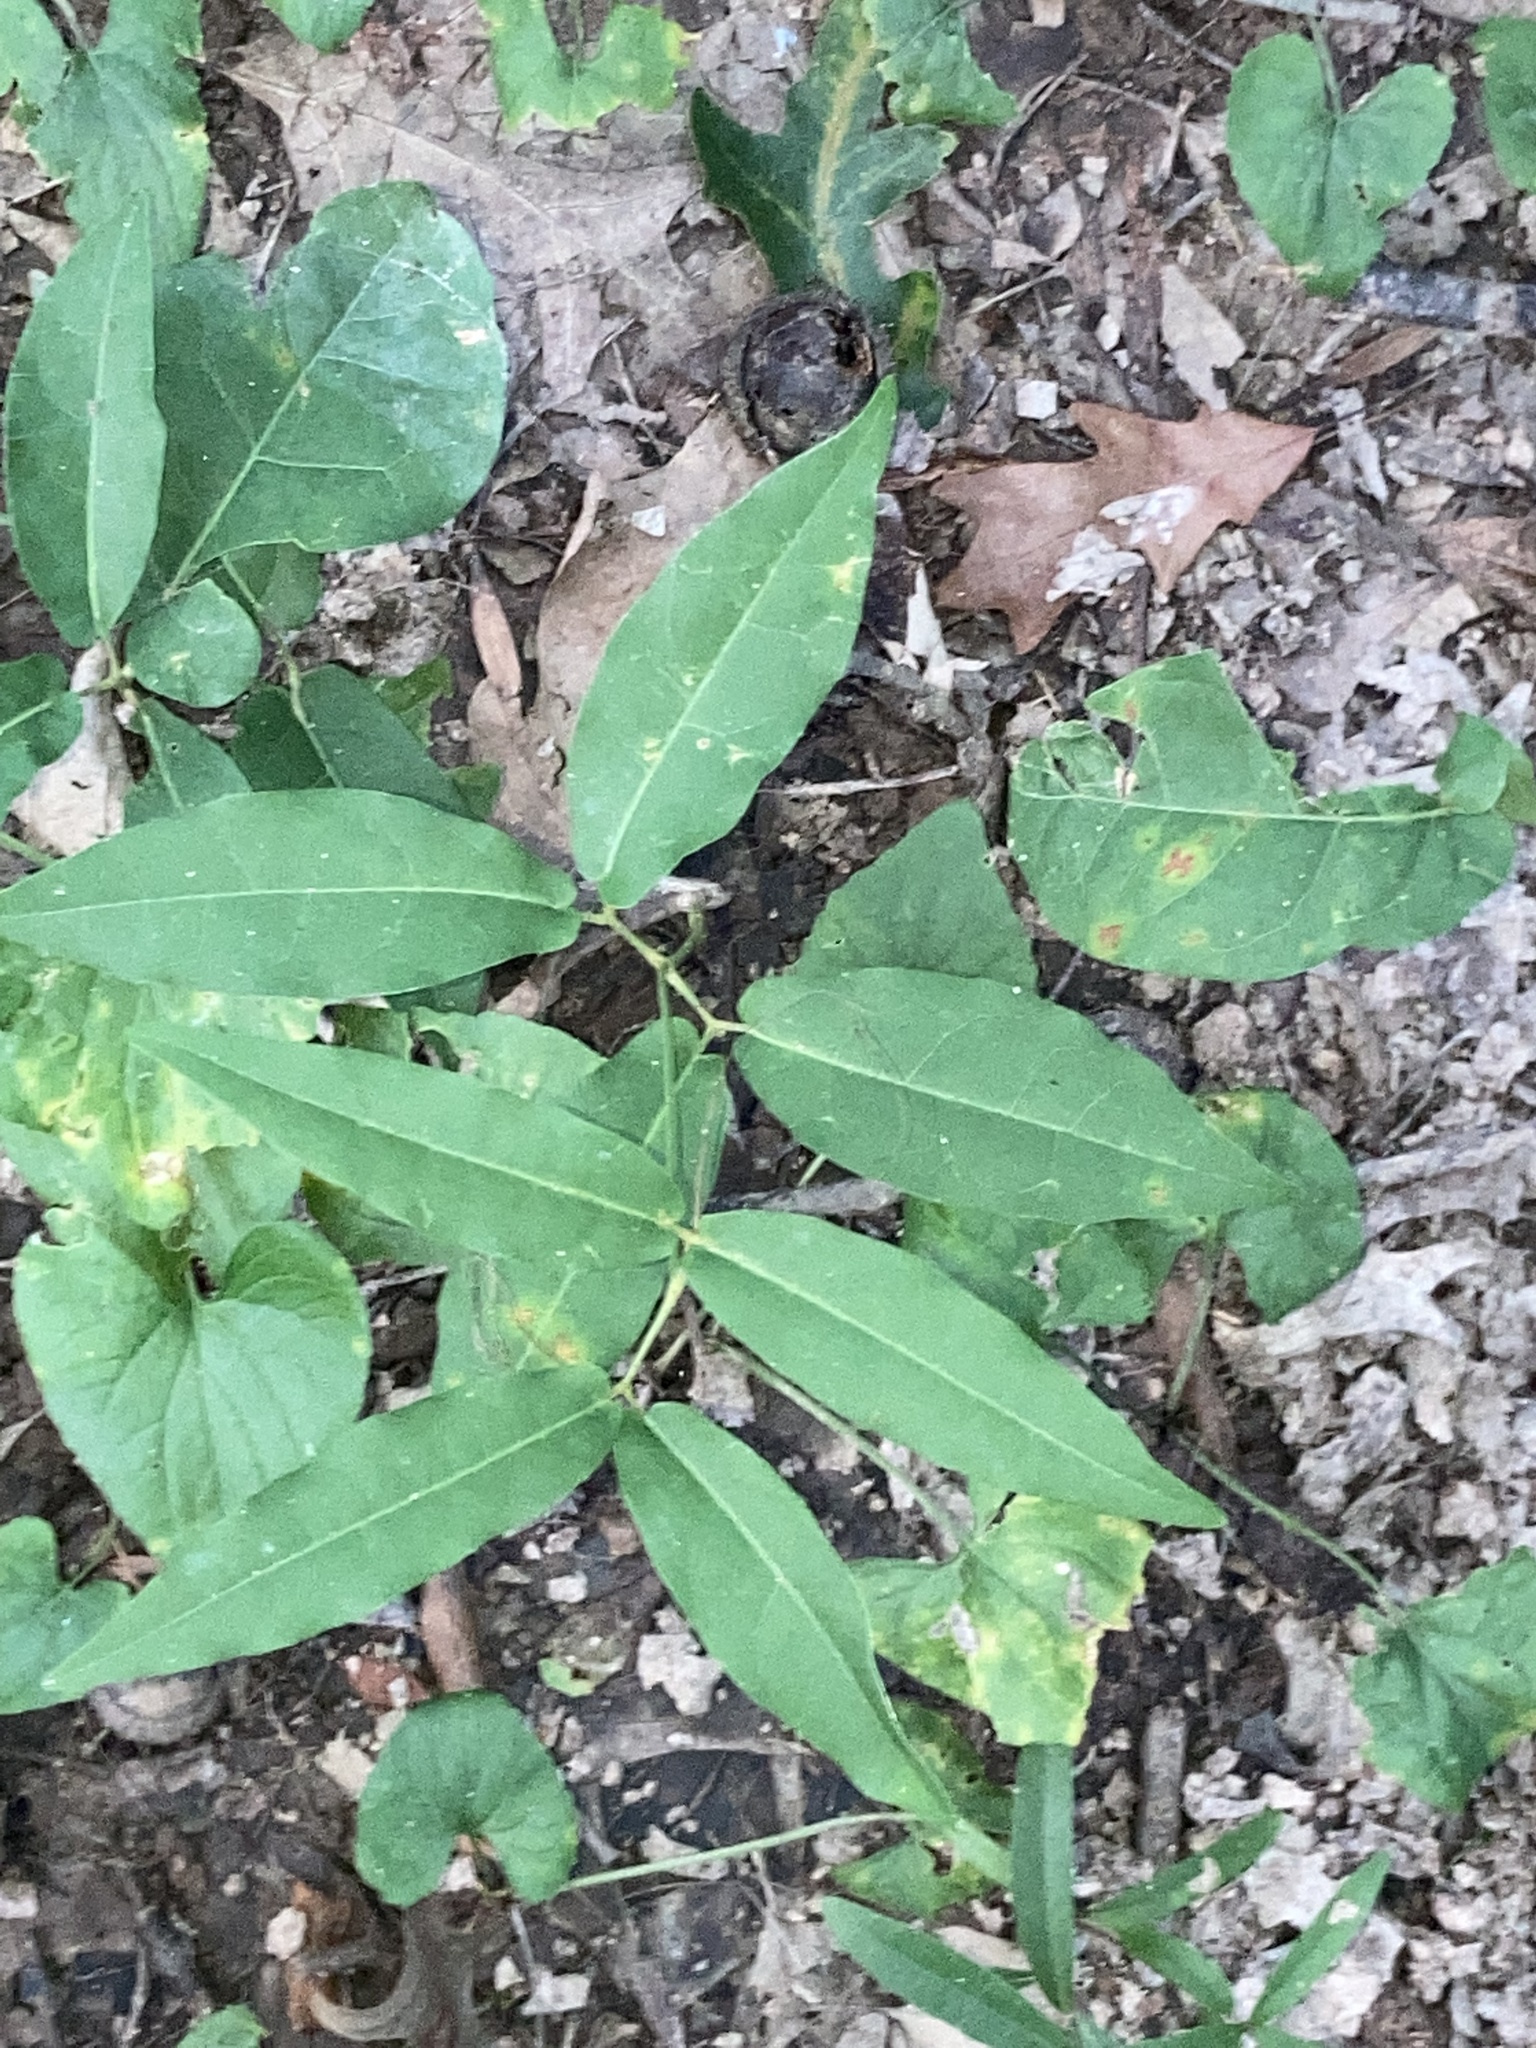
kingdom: Plantae
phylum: Tracheophyta
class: Magnoliopsida
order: Piperales
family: Aristolochiaceae
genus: Endodeca
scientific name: Endodeca serpentaria
